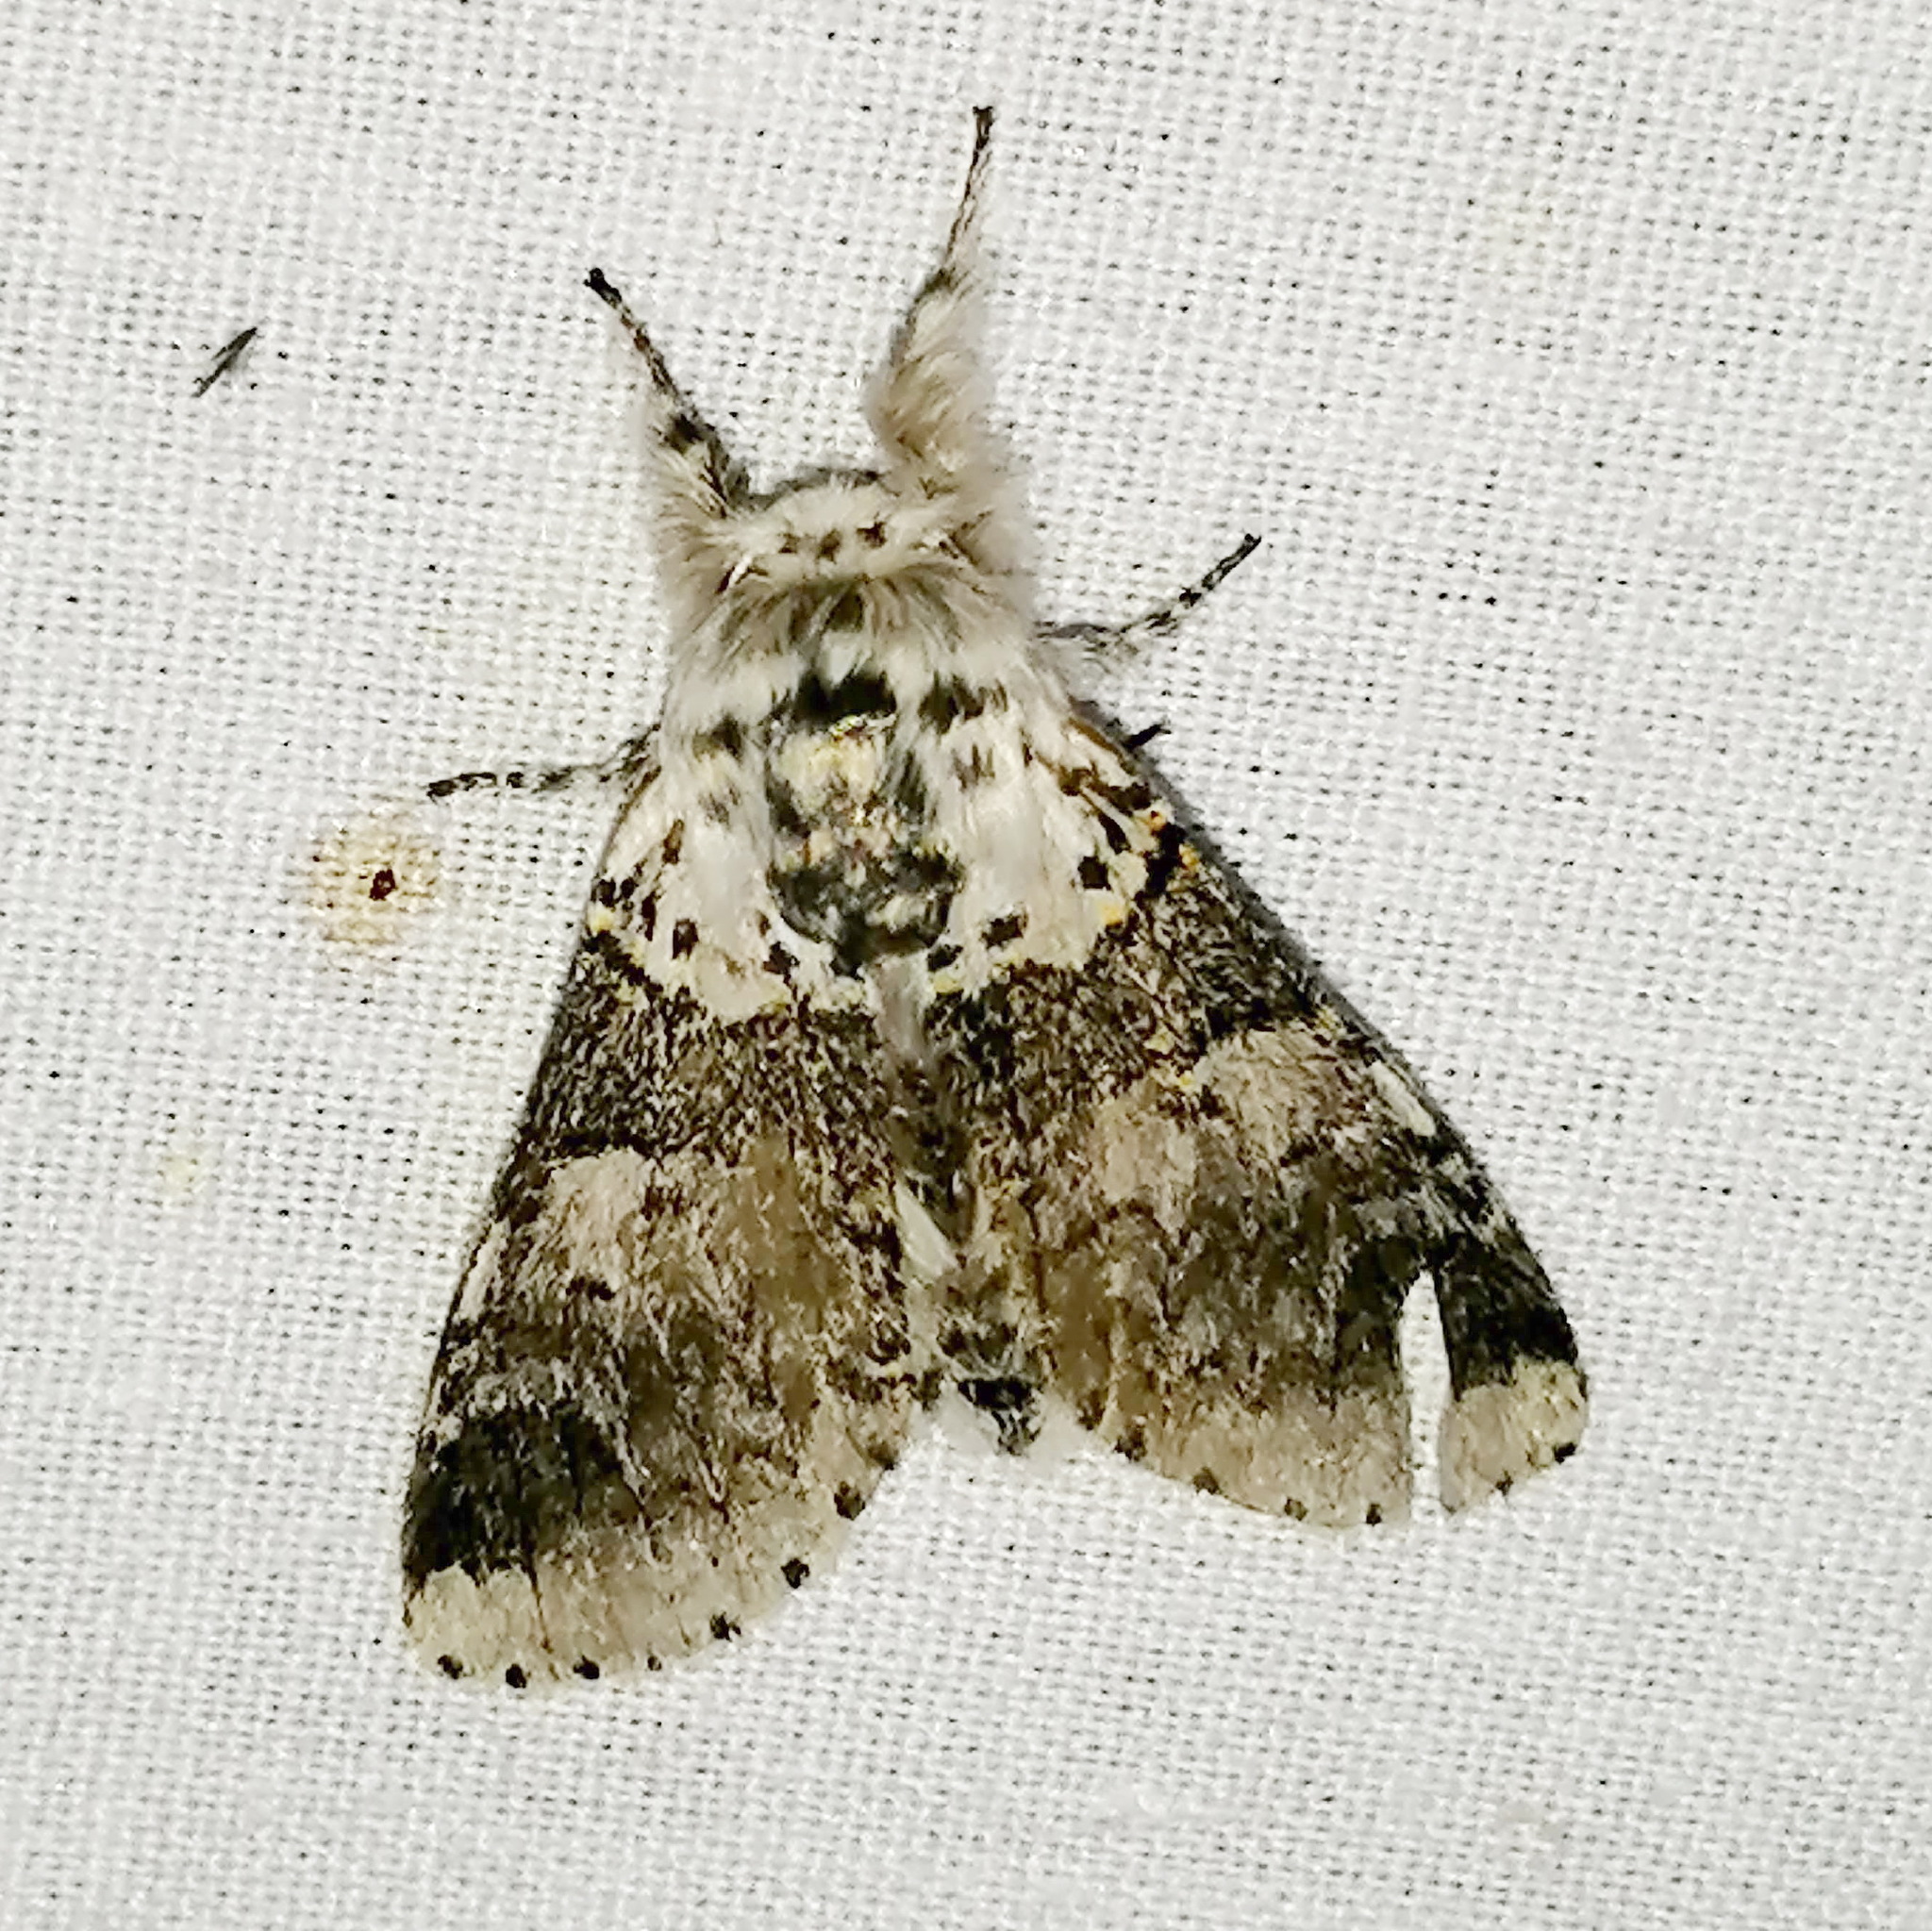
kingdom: Animalia
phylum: Arthropoda
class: Insecta
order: Lepidoptera
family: Notodontidae
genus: Furcula
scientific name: Furcula occidentalis
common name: Western furcula moth
